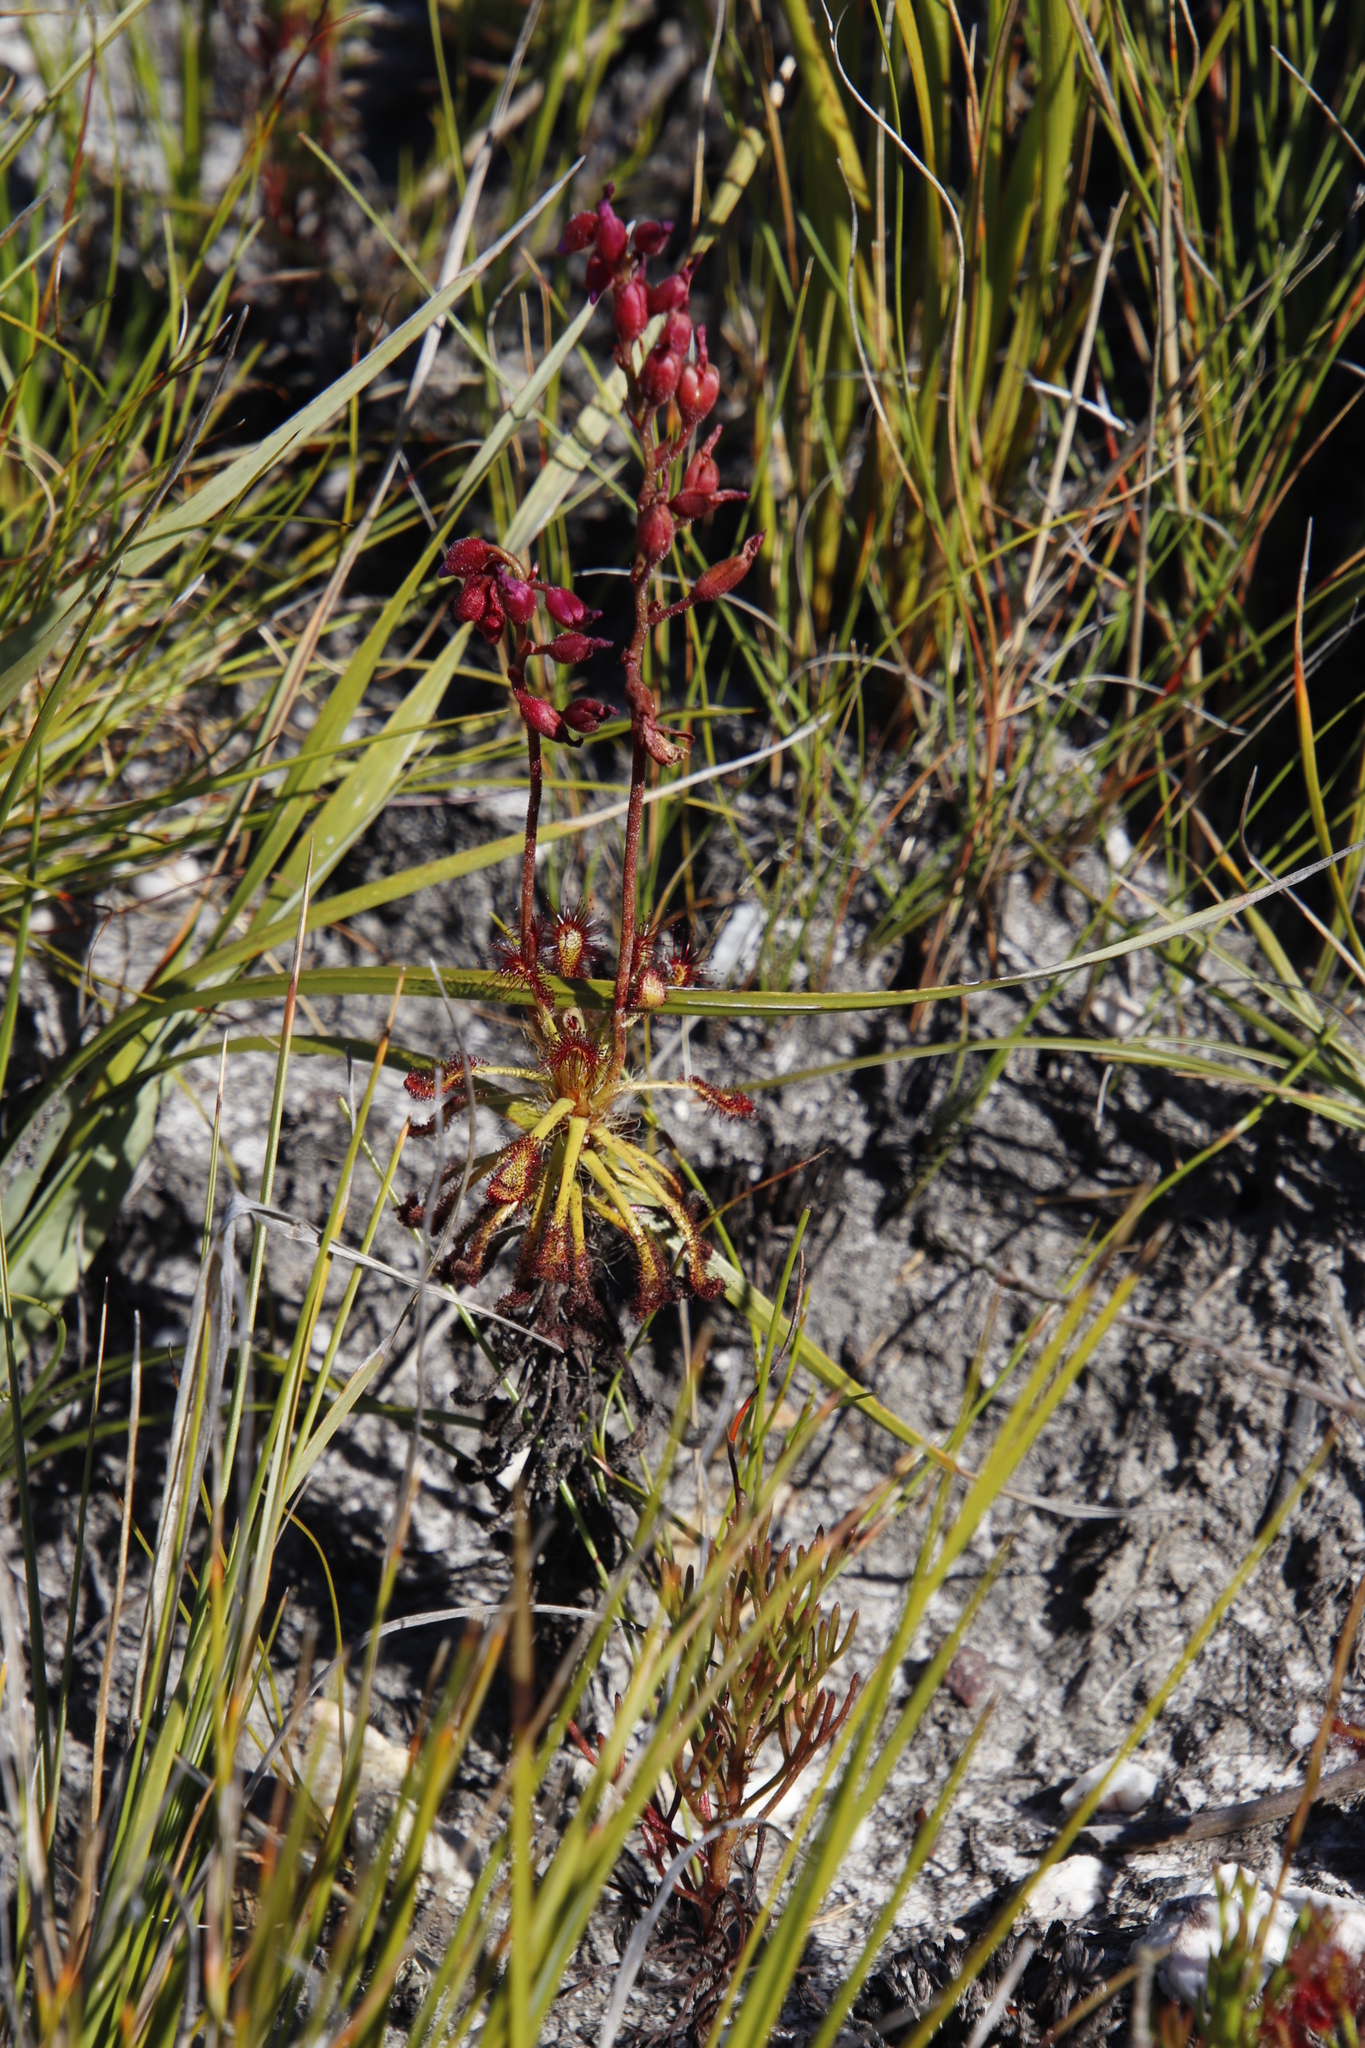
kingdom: Plantae
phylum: Tracheophyta
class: Magnoliopsida
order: Caryophyllales
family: Droseraceae
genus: Drosera
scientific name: Drosera glabripes
